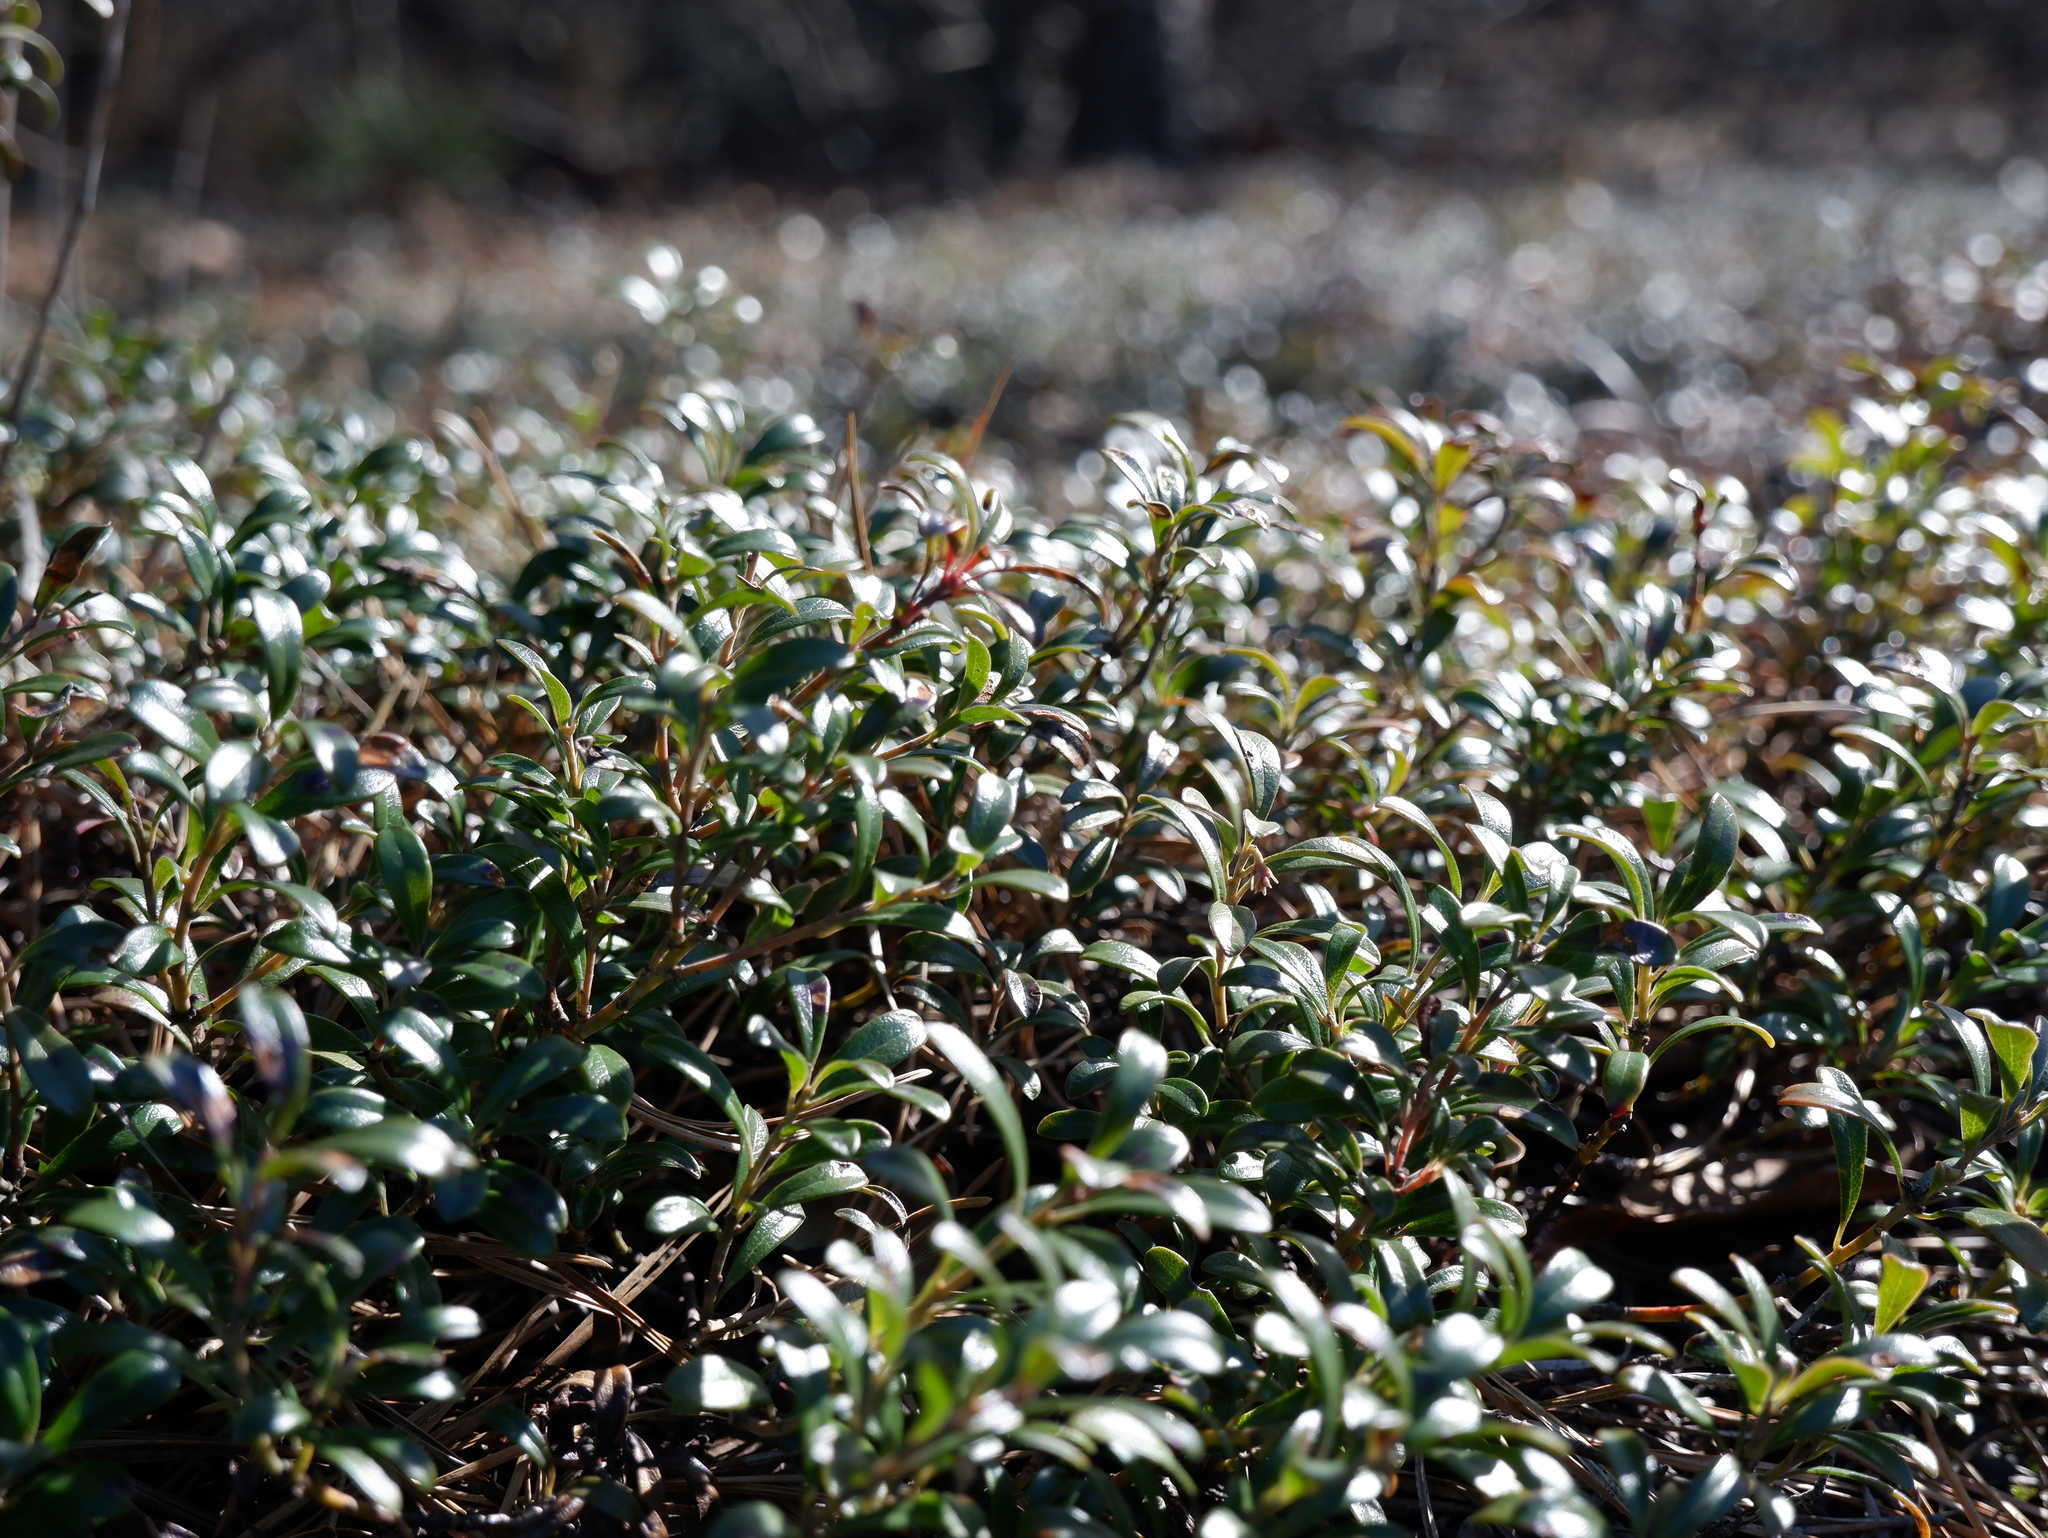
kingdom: Plantae
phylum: Tracheophyta
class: Magnoliopsida
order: Ericales
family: Ericaceae
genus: Arctostaphylos
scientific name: Arctostaphylos uva-ursi
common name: Bearberry
